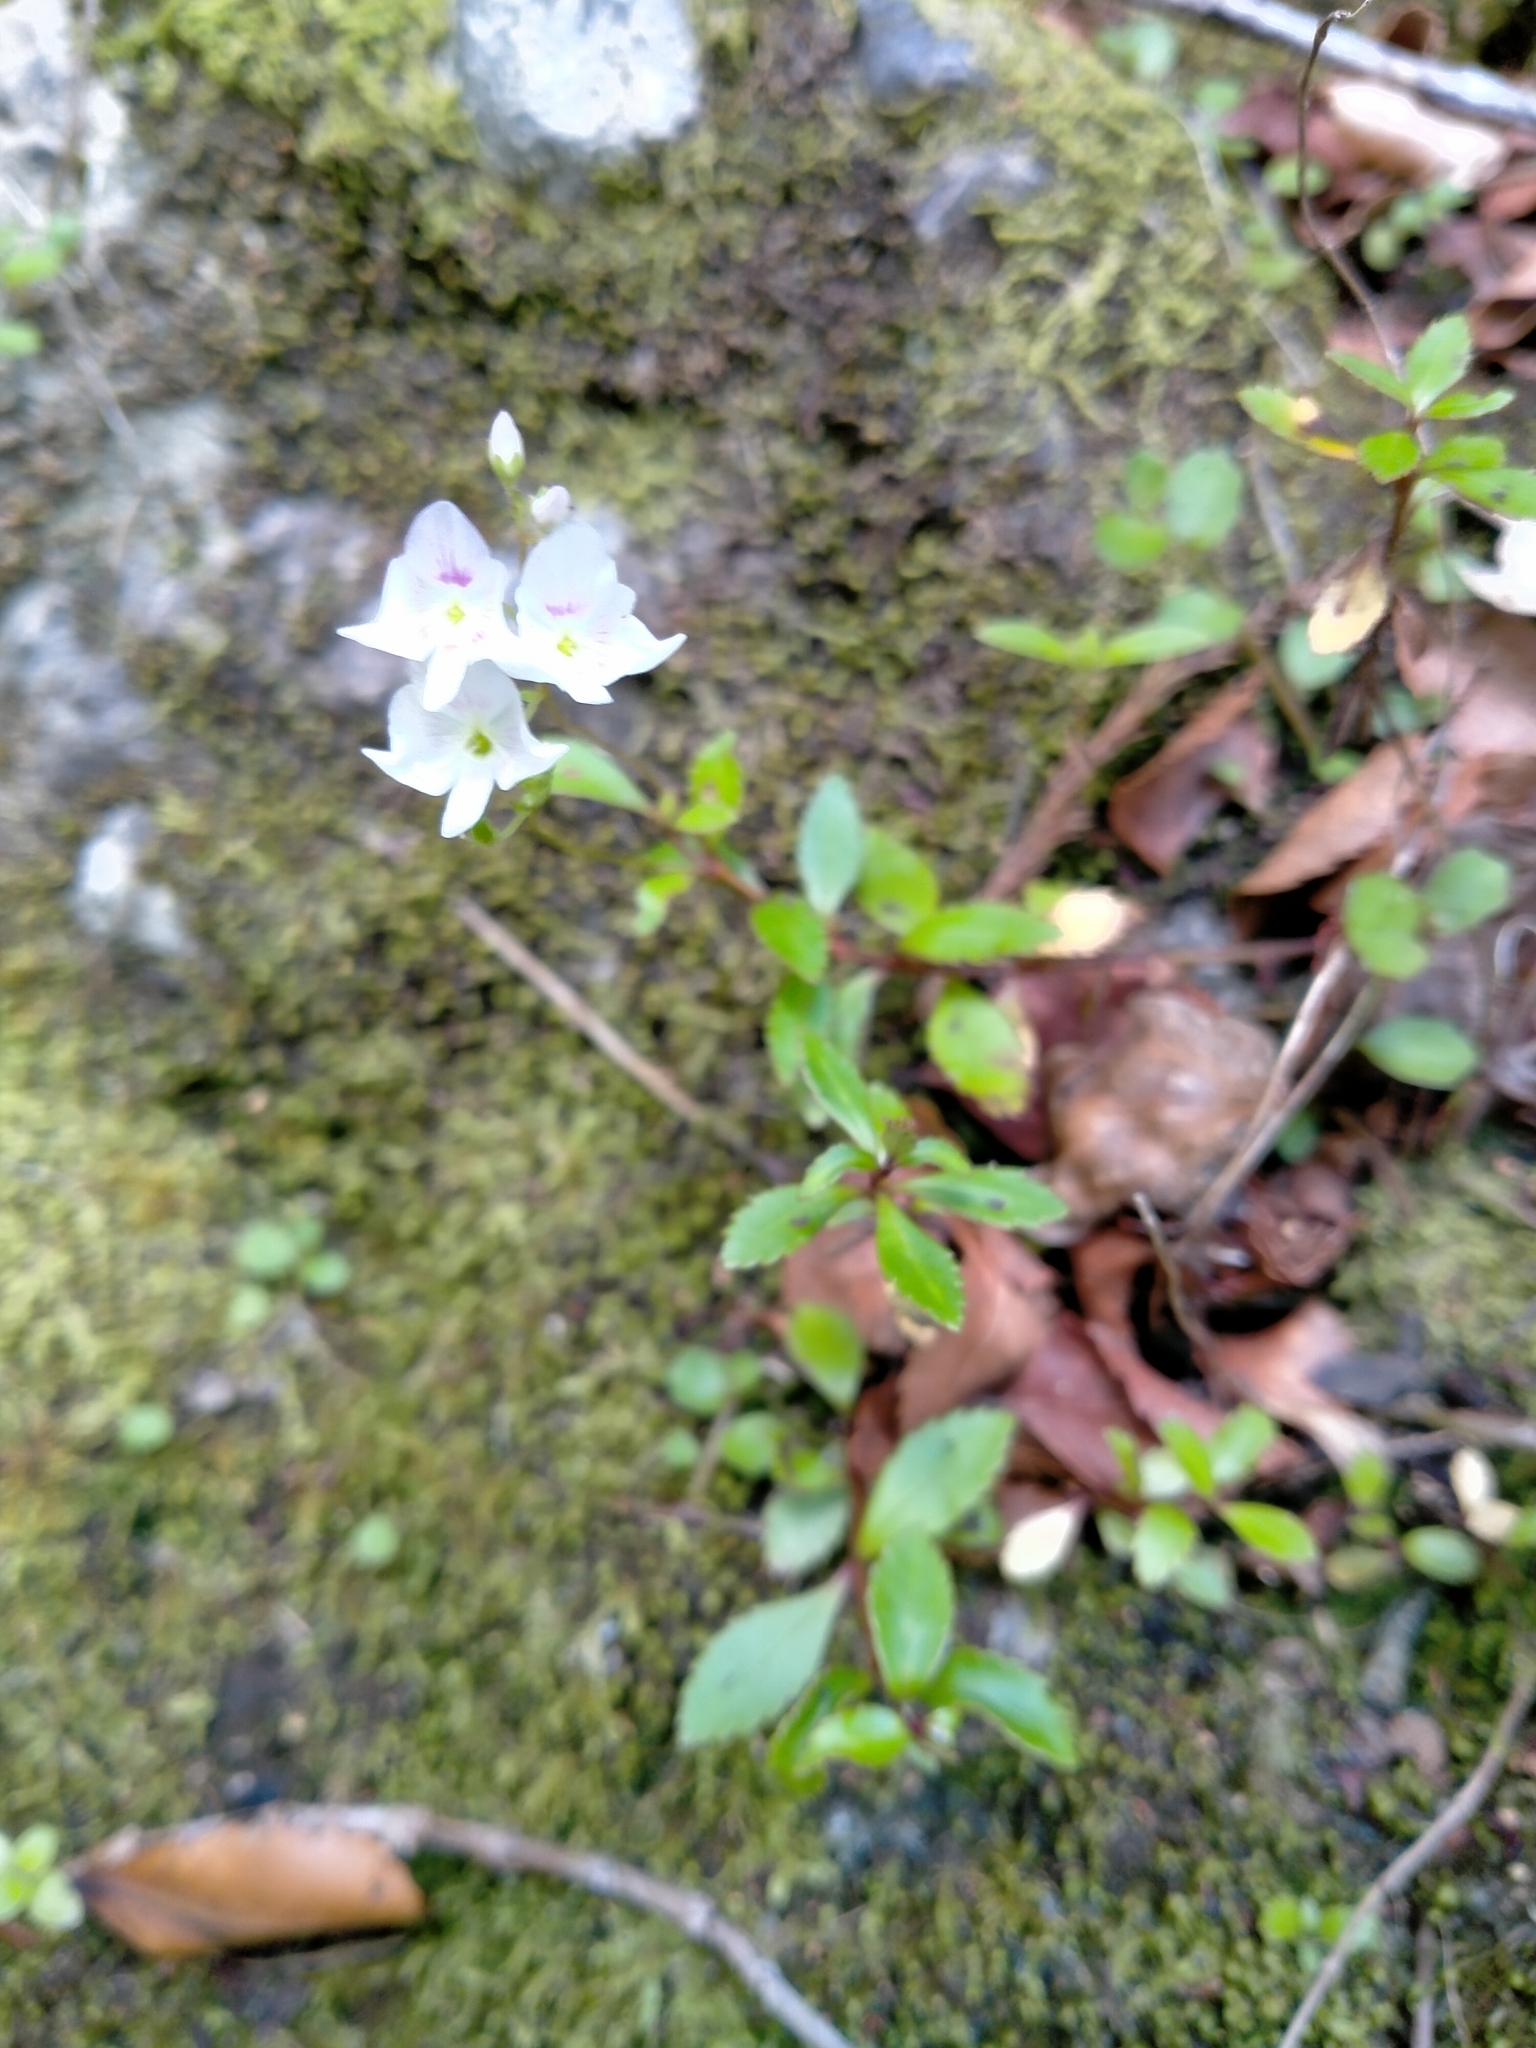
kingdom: Plantae
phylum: Tracheophyta
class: Magnoliopsida
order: Lamiales
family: Plantaginaceae
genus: Veronica
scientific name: Veronica lanceolata
